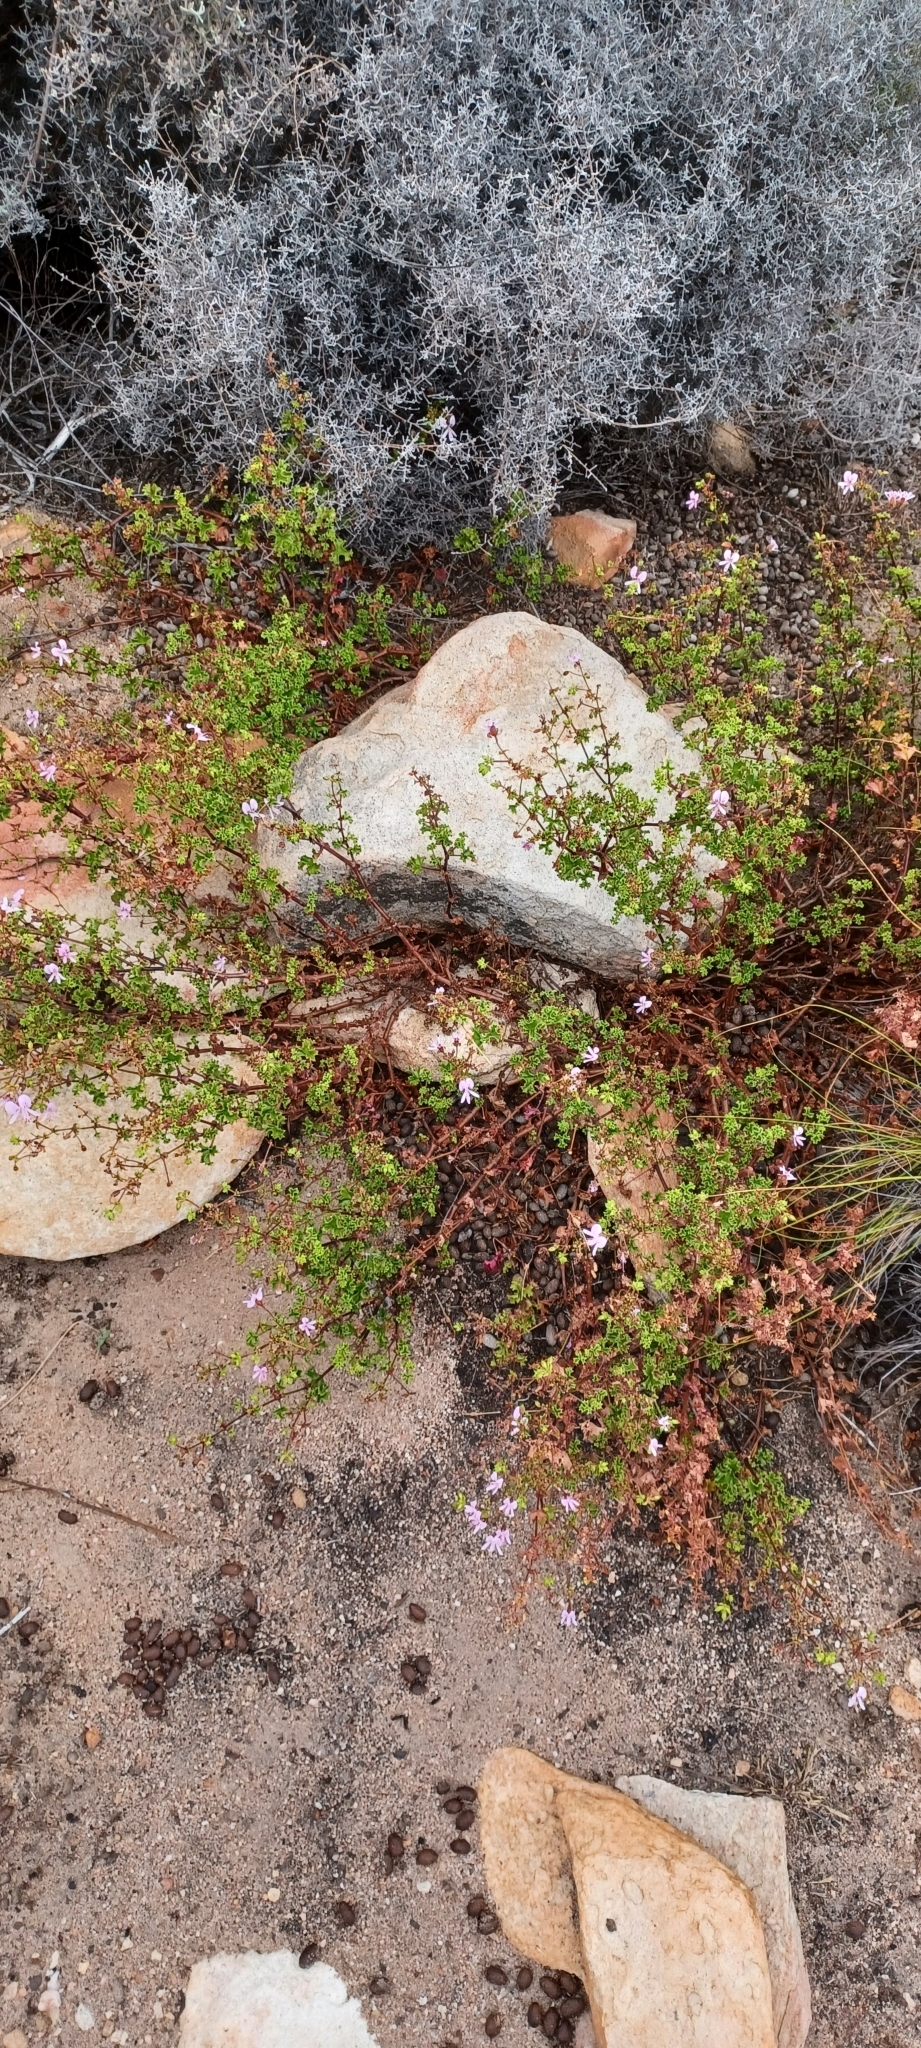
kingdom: Plantae
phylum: Tracheophyta
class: Magnoliopsida
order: Geraniales
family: Geraniaceae
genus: Pelargonium
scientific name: Pelargonium englerianum
